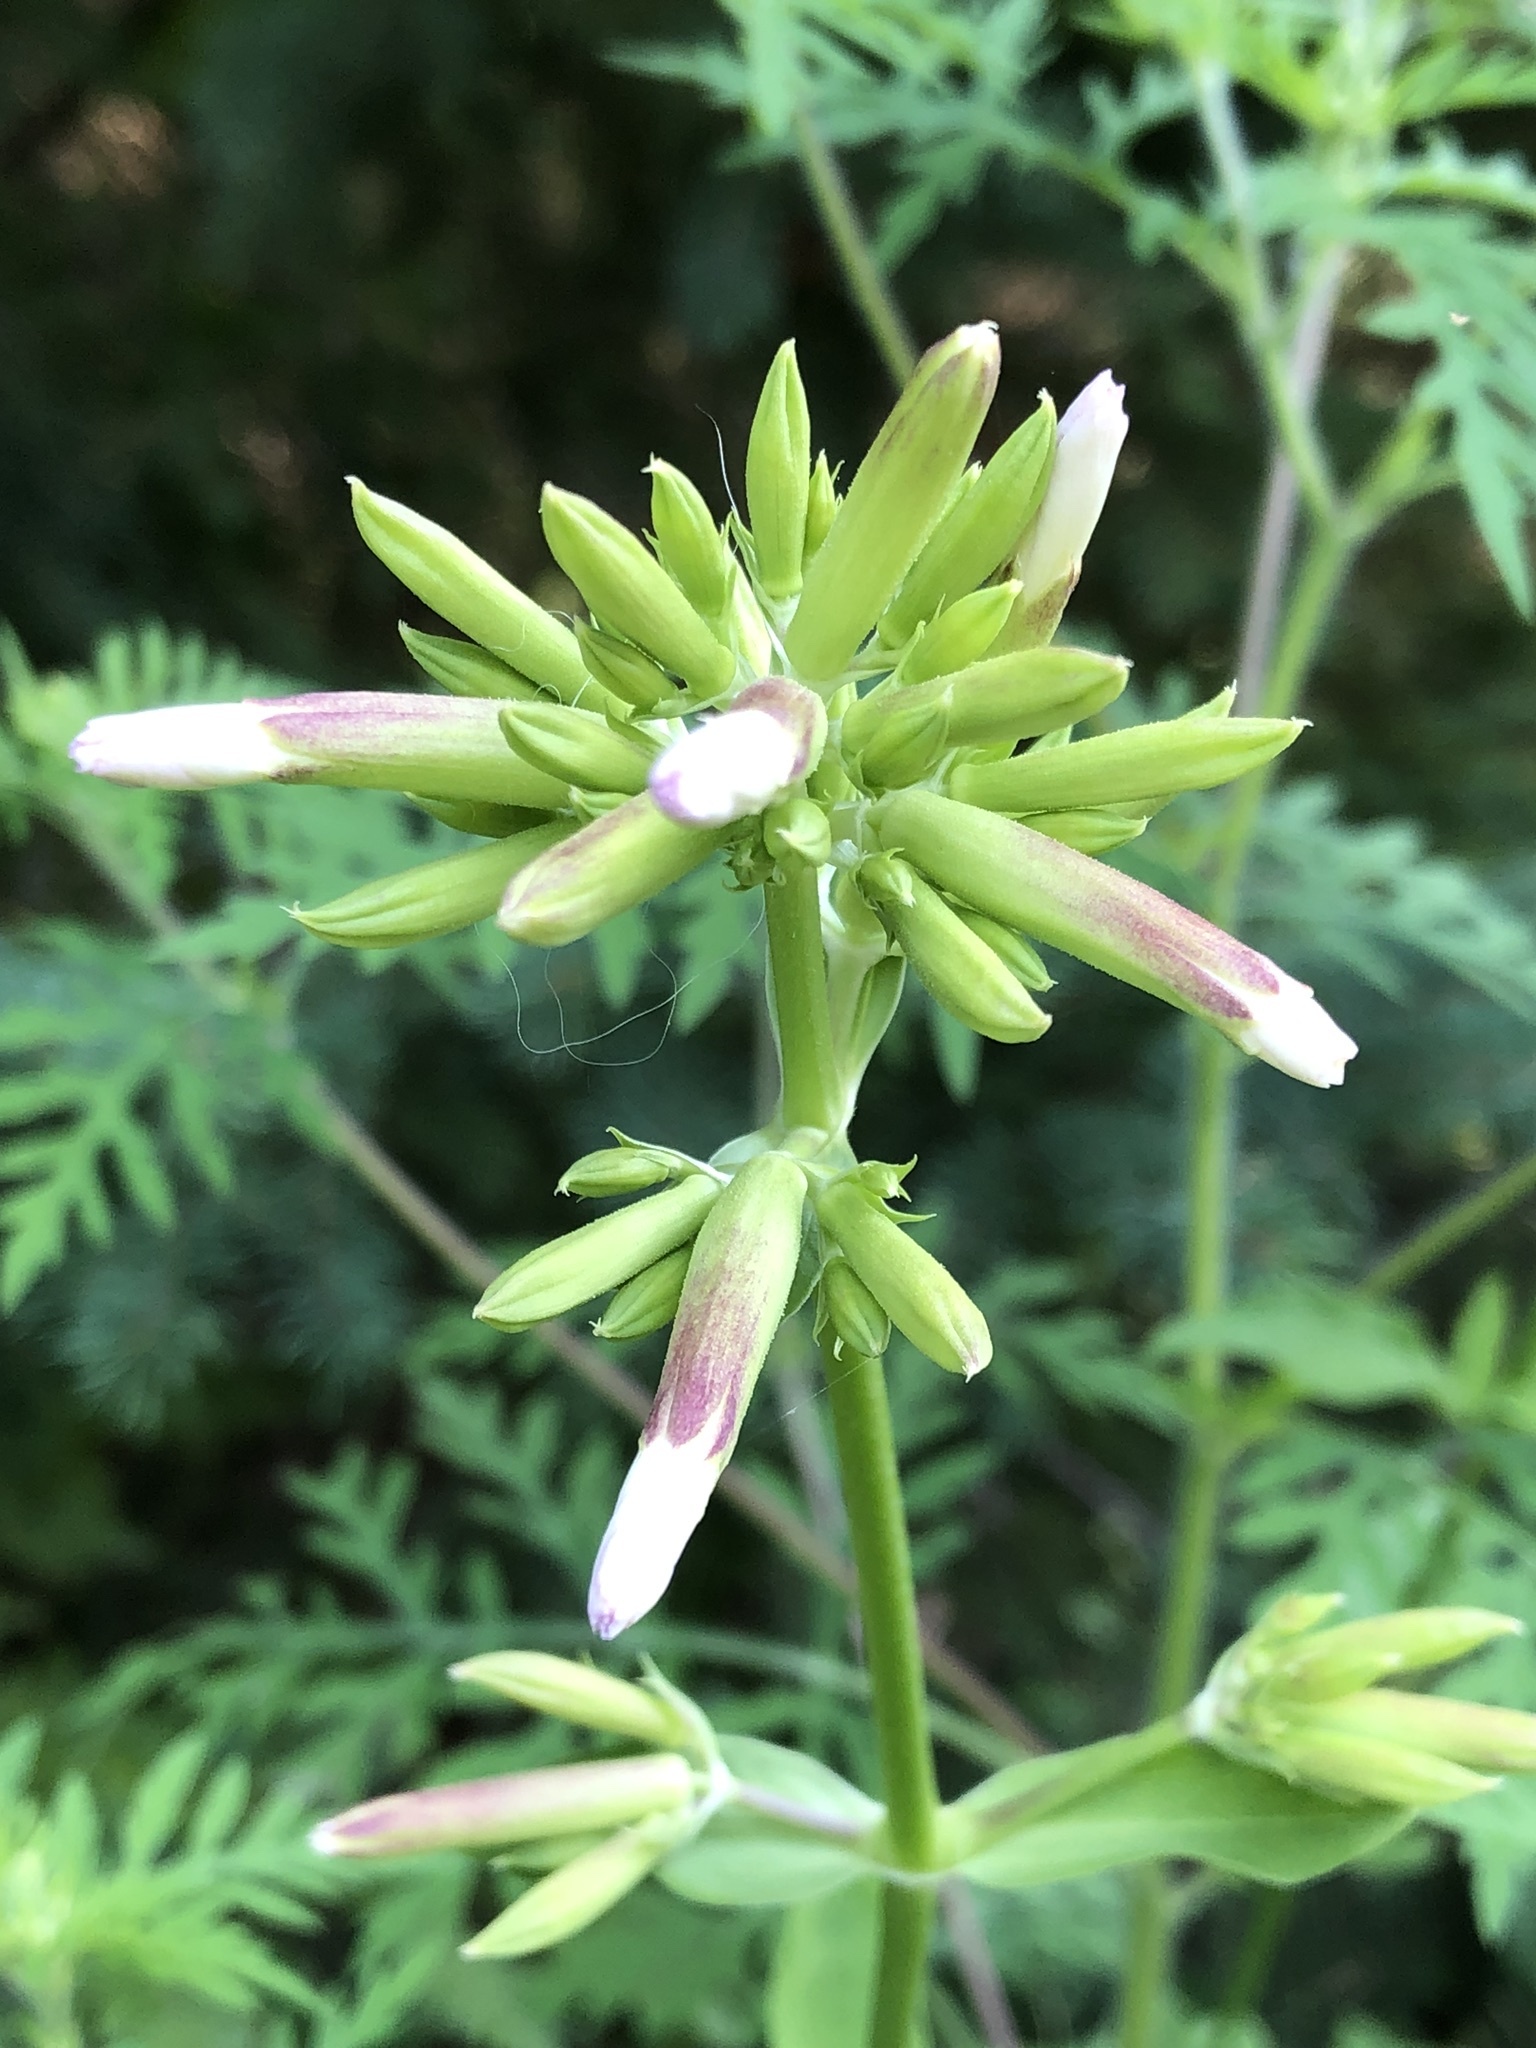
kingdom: Plantae
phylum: Tracheophyta
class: Magnoliopsida
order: Caryophyllales
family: Caryophyllaceae
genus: Saponaria
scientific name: Saponaria officinalis
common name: Soapwort
